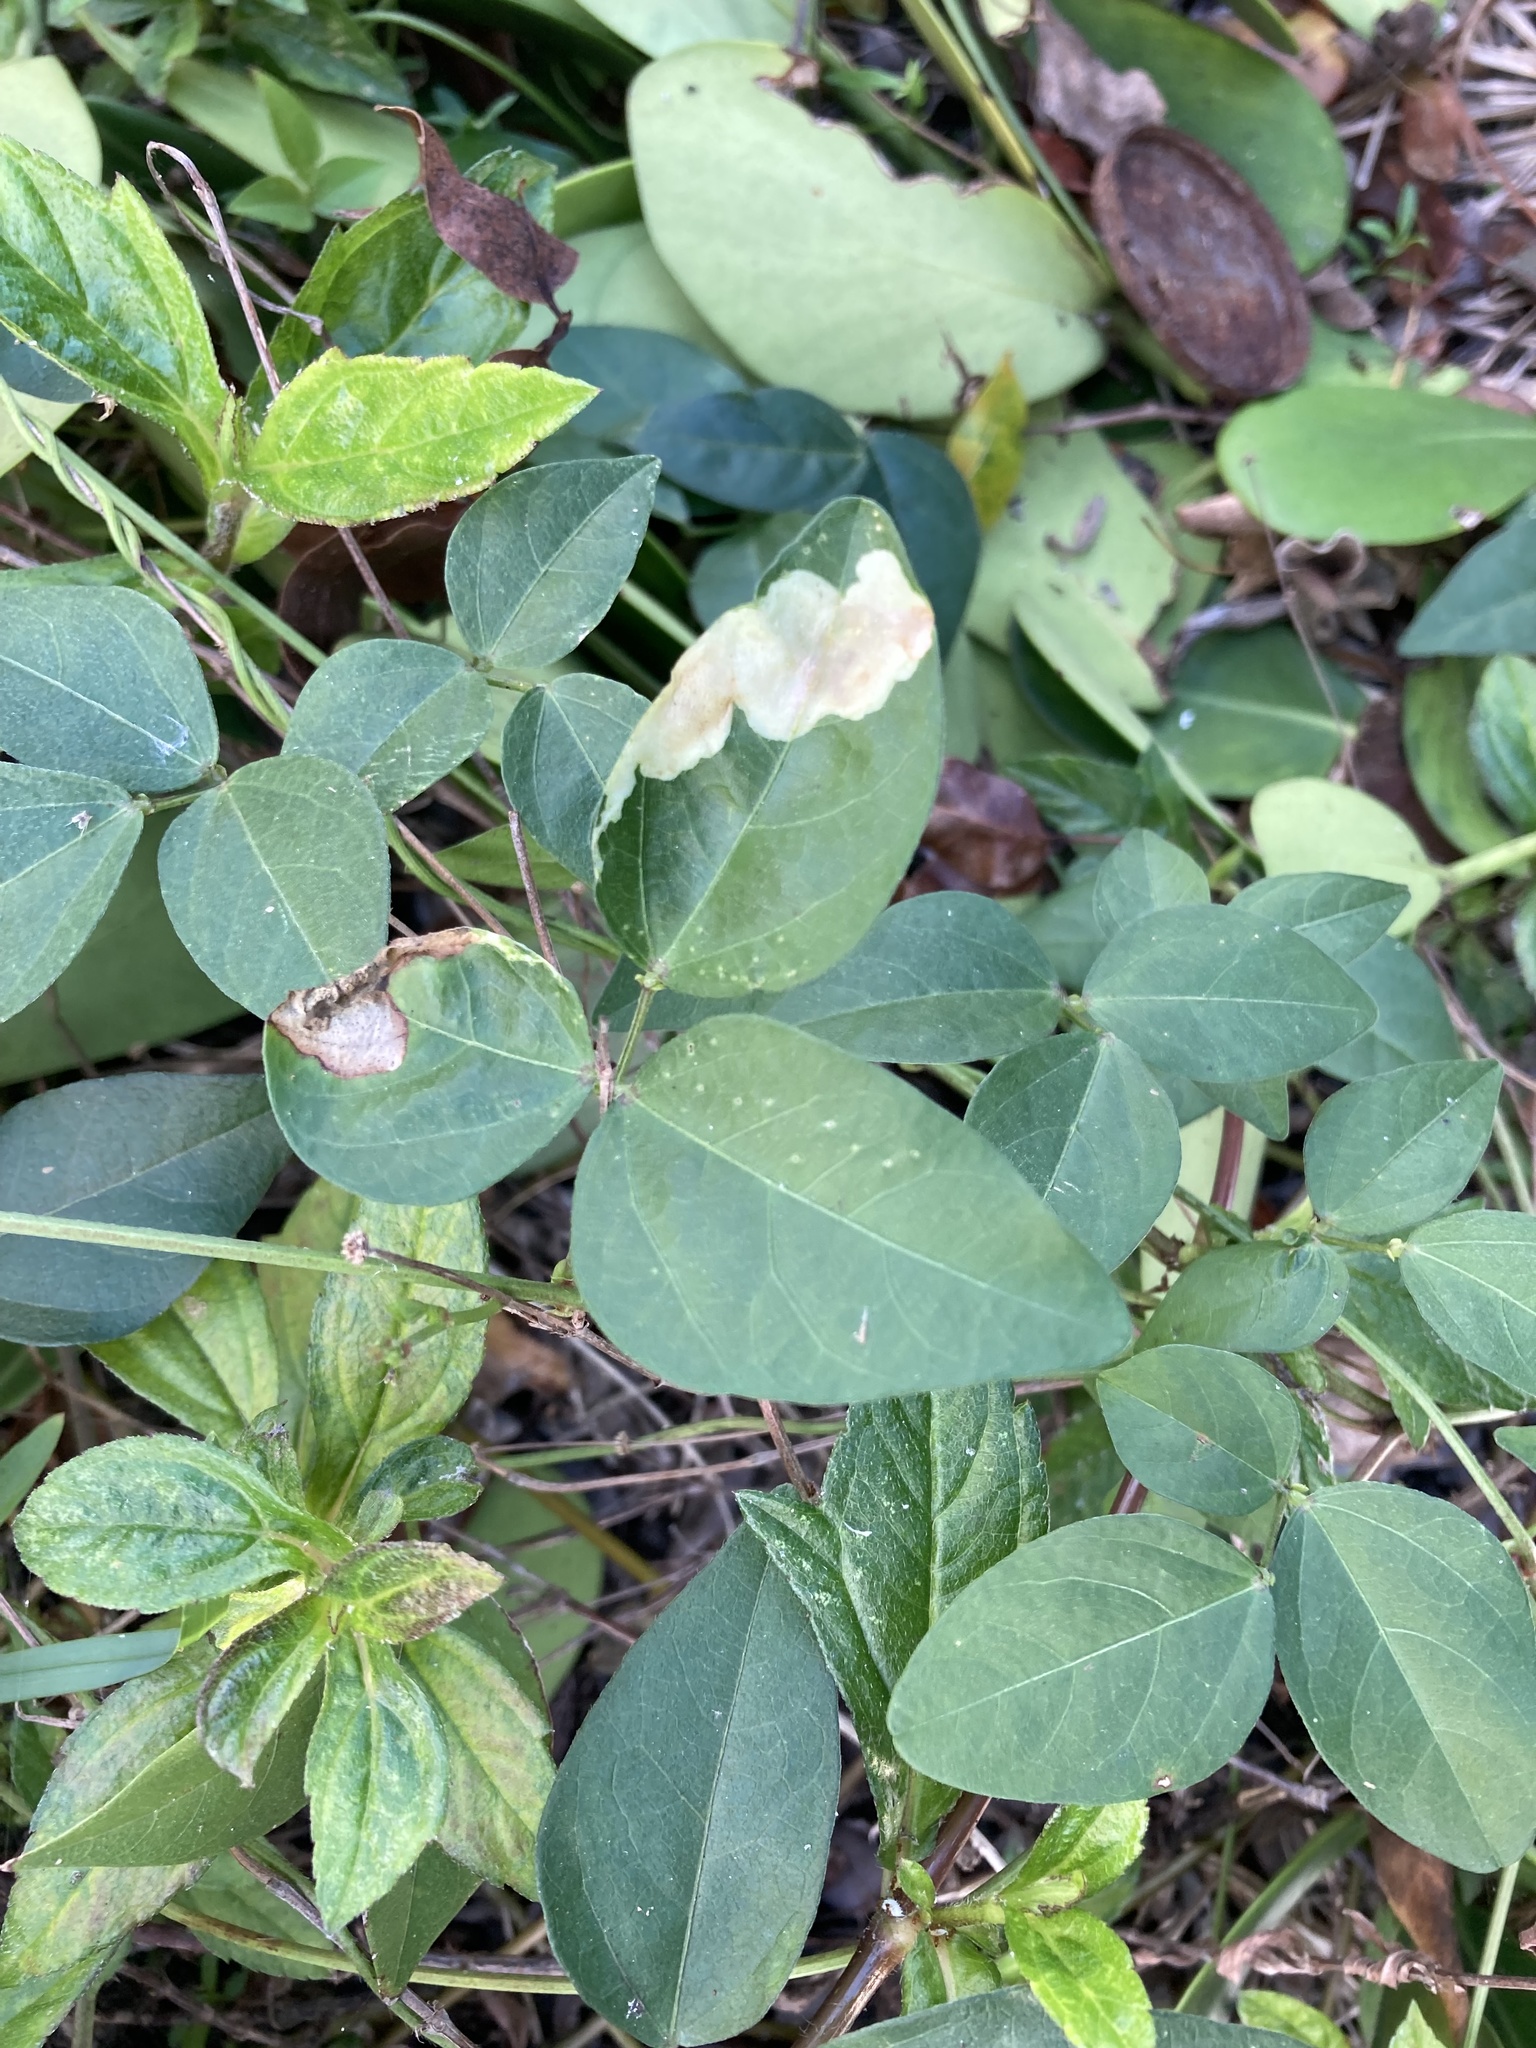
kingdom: Plantae
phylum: Tracheophyta
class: Magnoliopsida
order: Fabales
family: Fabaceae
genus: Vigna
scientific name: Vigna luteola
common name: Hairypod cowpea
